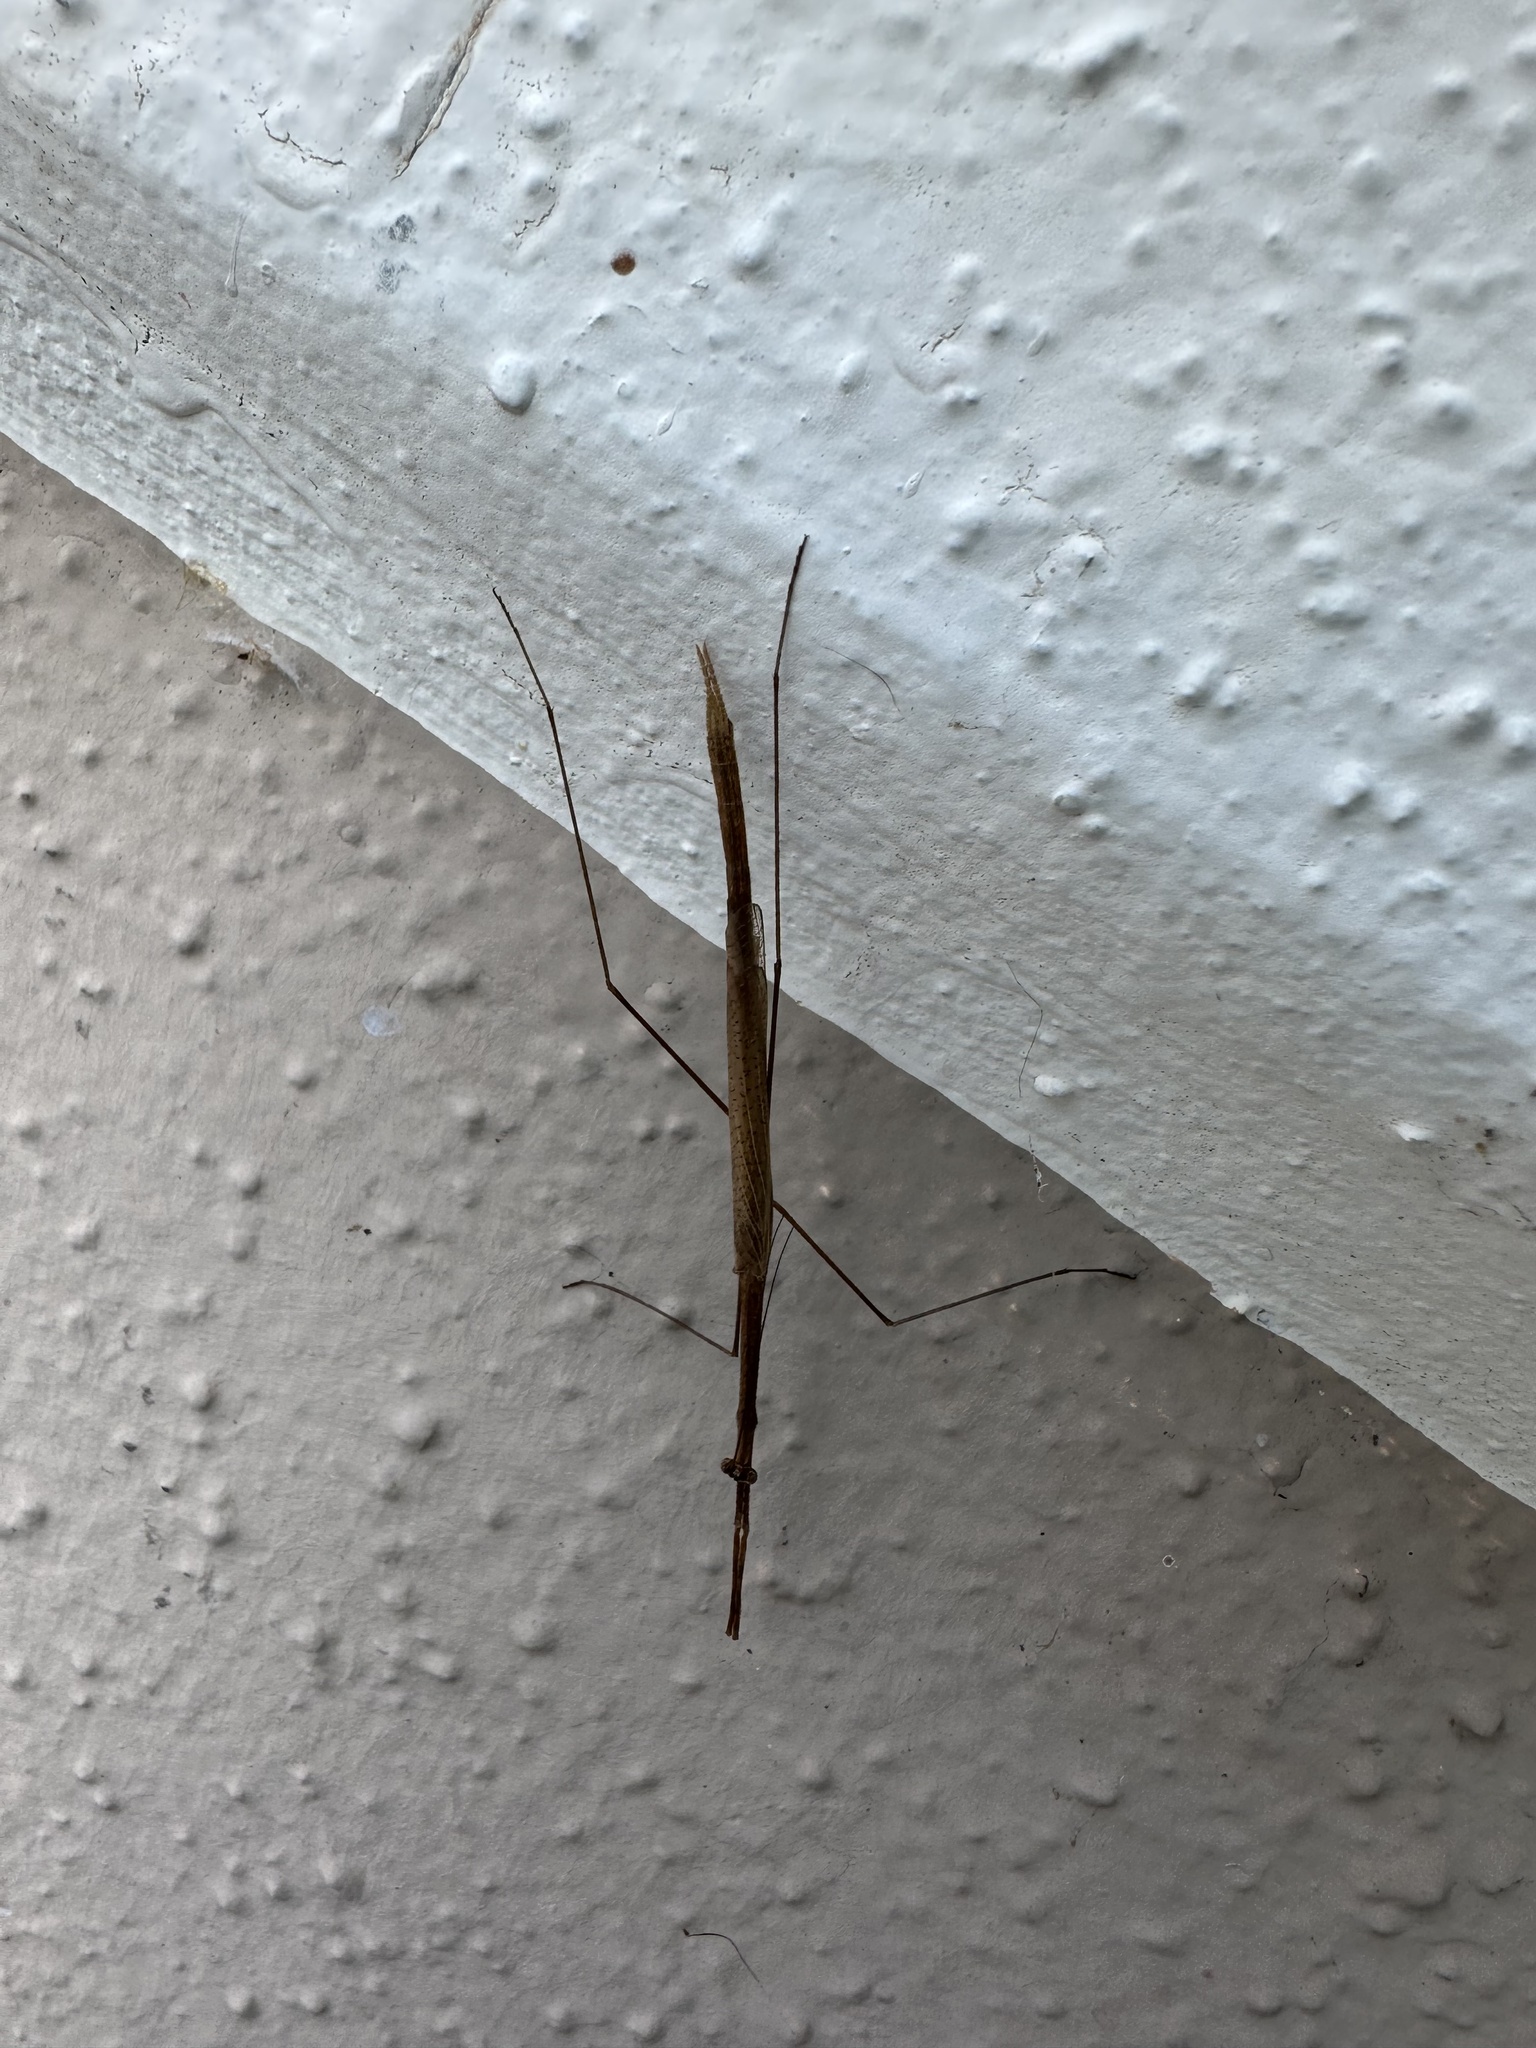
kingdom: Animalia
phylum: Arthropoda
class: Insecta
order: Mantodea
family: Thespidae
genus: Thesprotia
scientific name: Thesprotia graminis
